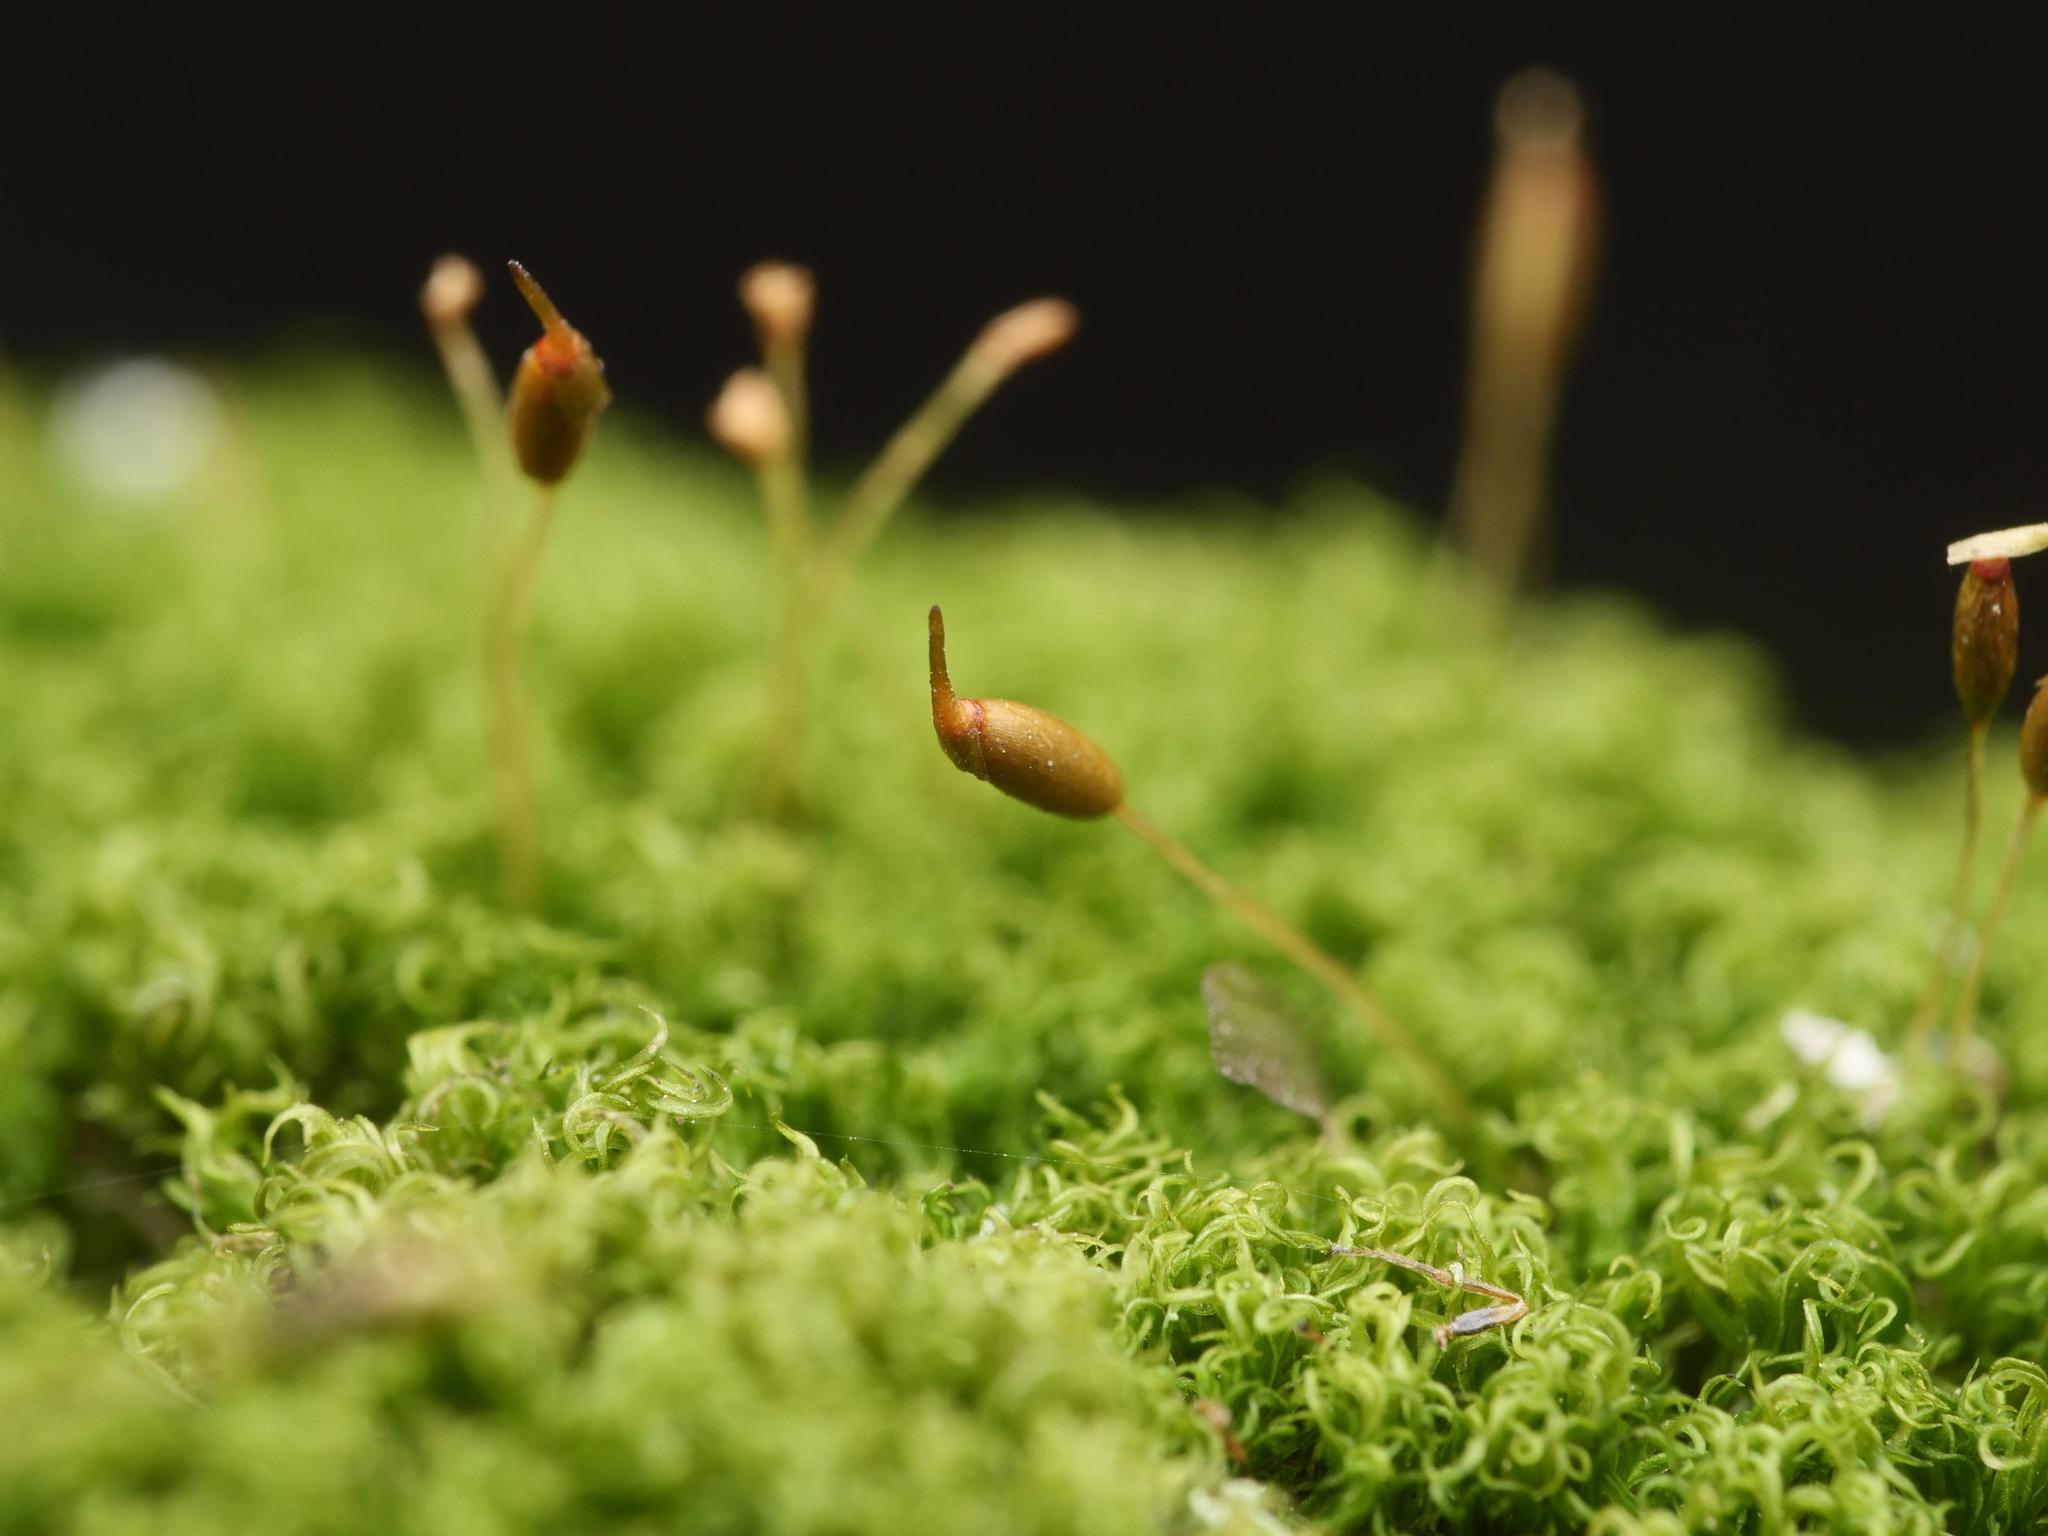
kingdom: Plantae
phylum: Bryophyta
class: Bryopsida
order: Dicranales
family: Rhabdoweisiaceae
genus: Dicranoweisia
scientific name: Dicranoweisia cirrata
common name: Common pincushion
